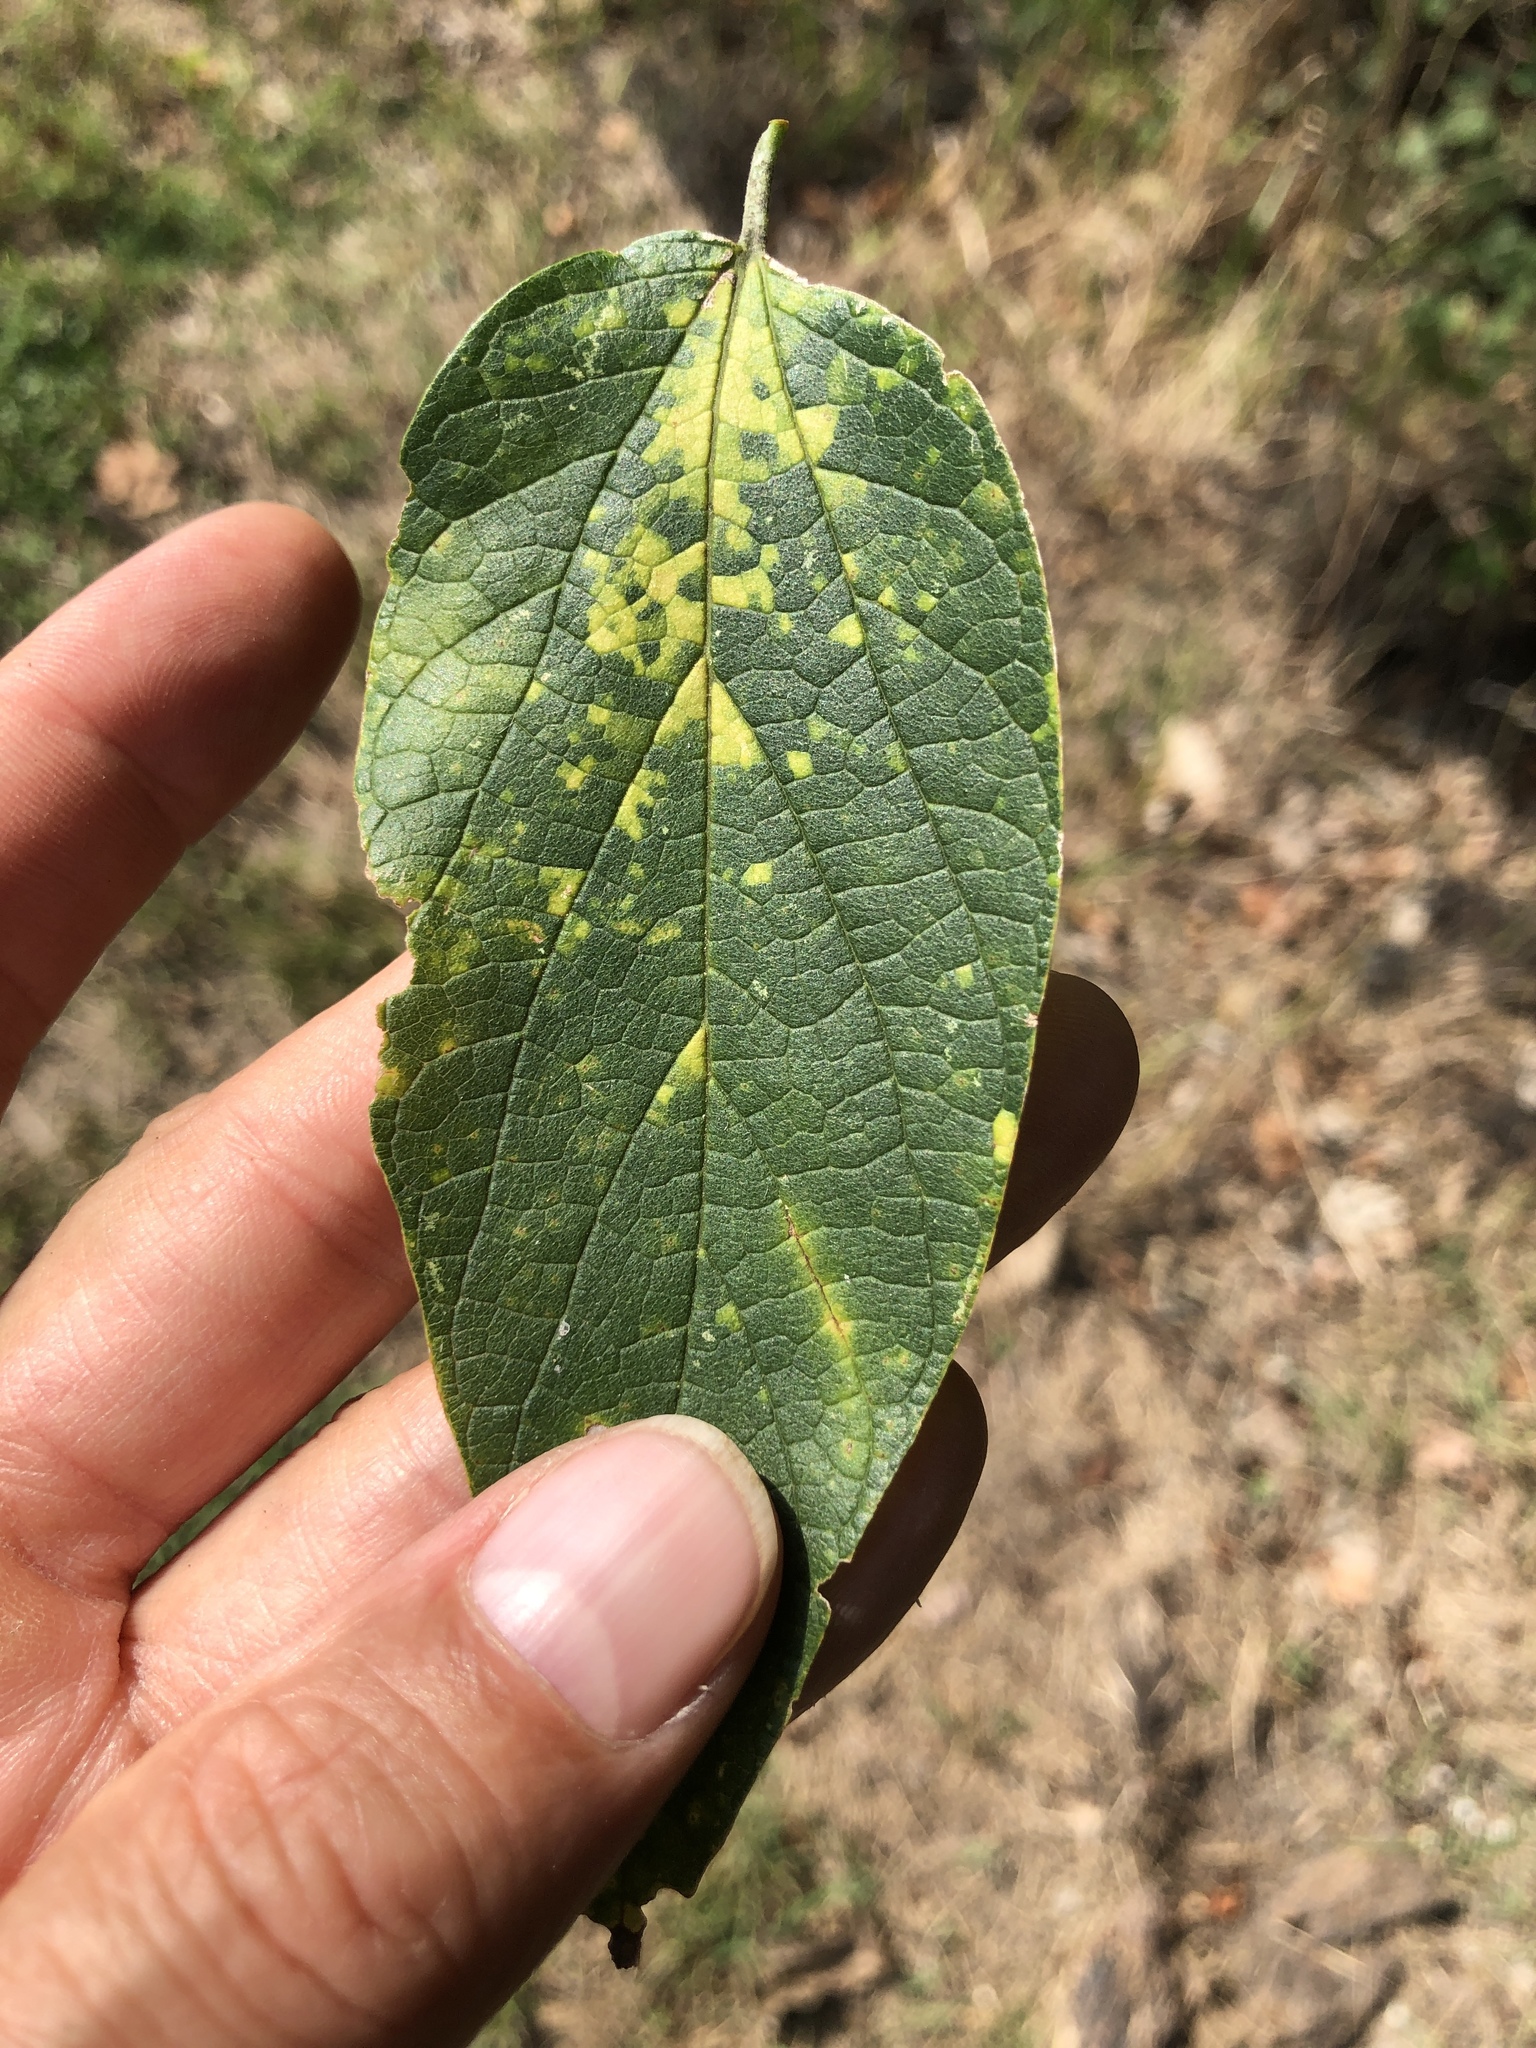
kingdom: Viruses
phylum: Kitrinoviricota
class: Alsuviricetes
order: Martellivirales
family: Closteroviridae
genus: Ampelovirus
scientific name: Ampelovirus
